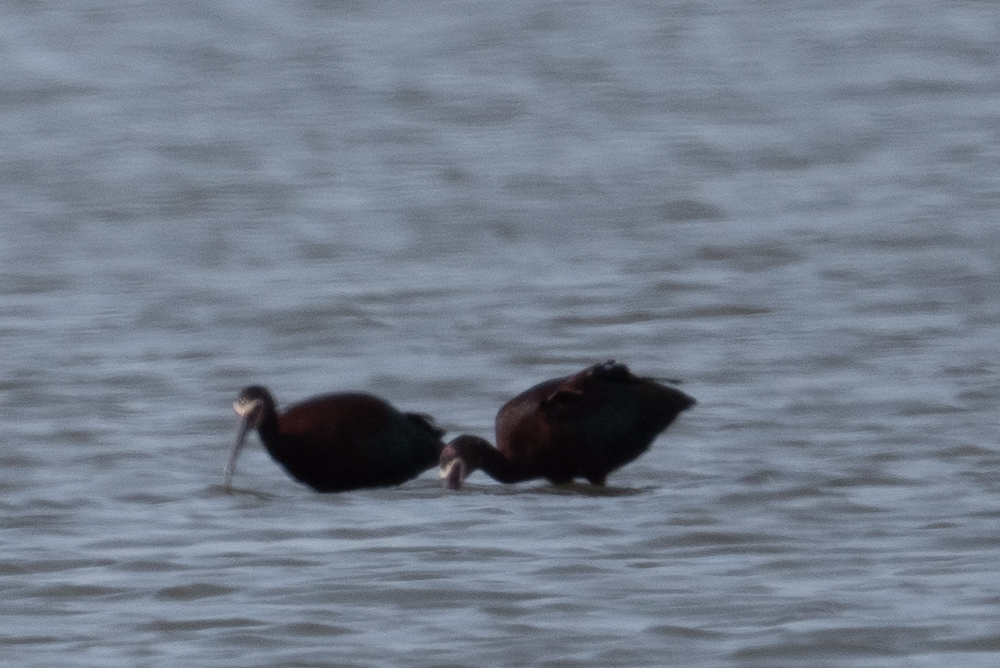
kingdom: Animalia
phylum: Chordata
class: Aves
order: Pelecaniformes
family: Threskiornithidae
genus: Plegadis
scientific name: Plegadis chihi
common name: White-faced ibis
